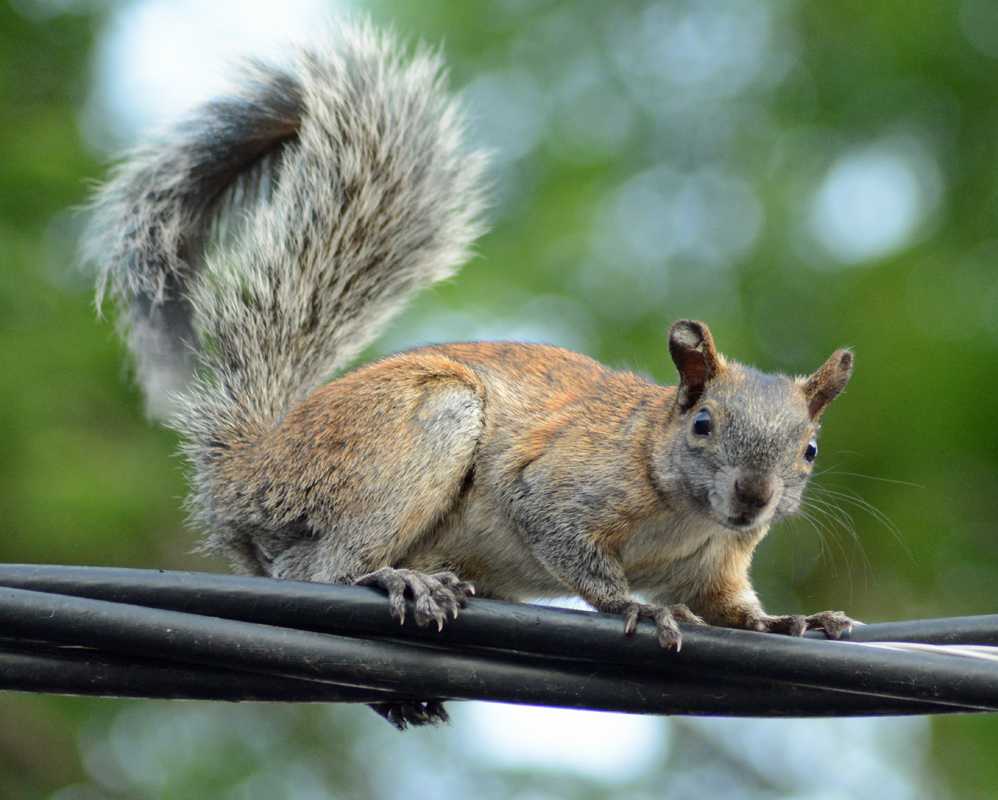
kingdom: Animalia
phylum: Chordata
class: Mammalia
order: Rodentia
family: Sciuridae
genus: Sciurus
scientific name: Sciurus aureogaster
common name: Red-bellied squirrel
